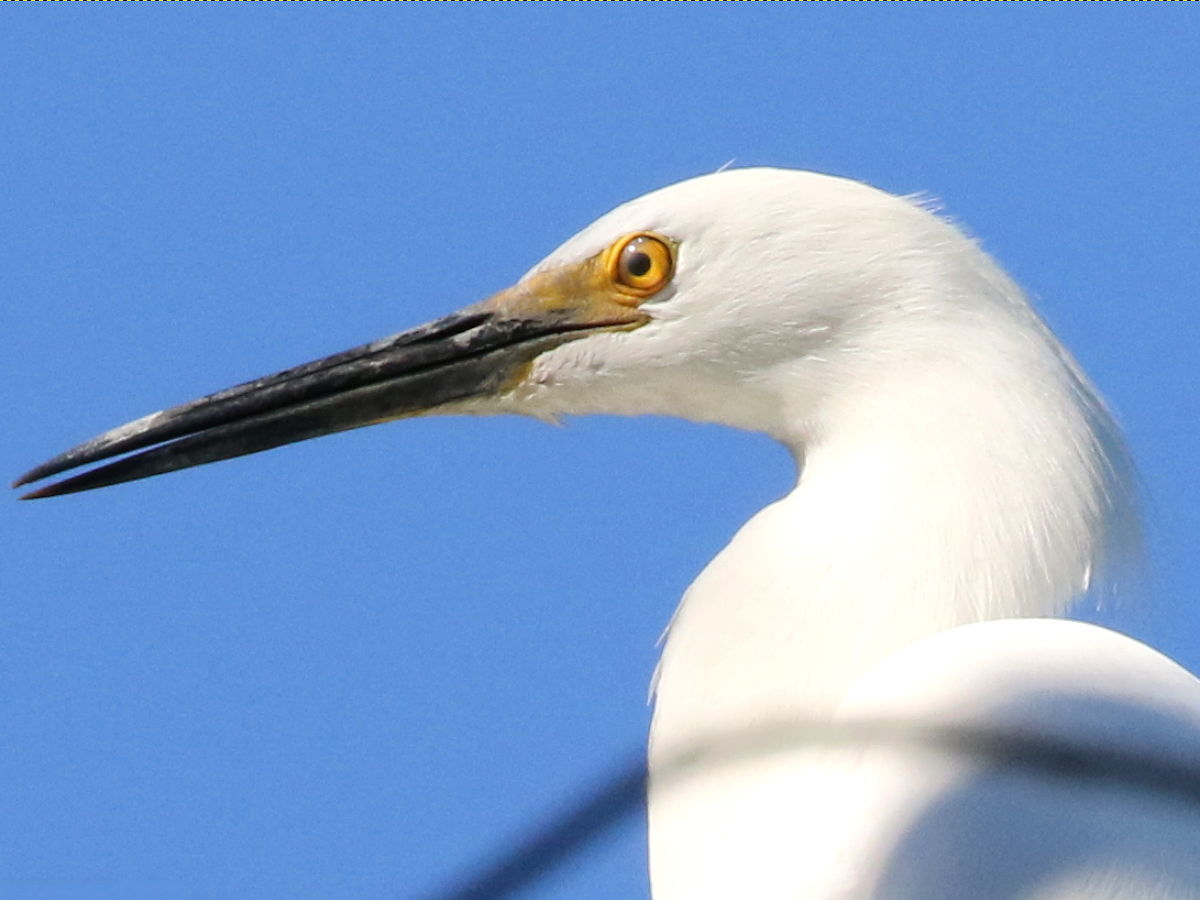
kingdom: Animalia
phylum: Chordata
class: Aves
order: Pelecaniformes
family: Ardeidae
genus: Egretta
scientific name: Egretta thula
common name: Snowy egret
